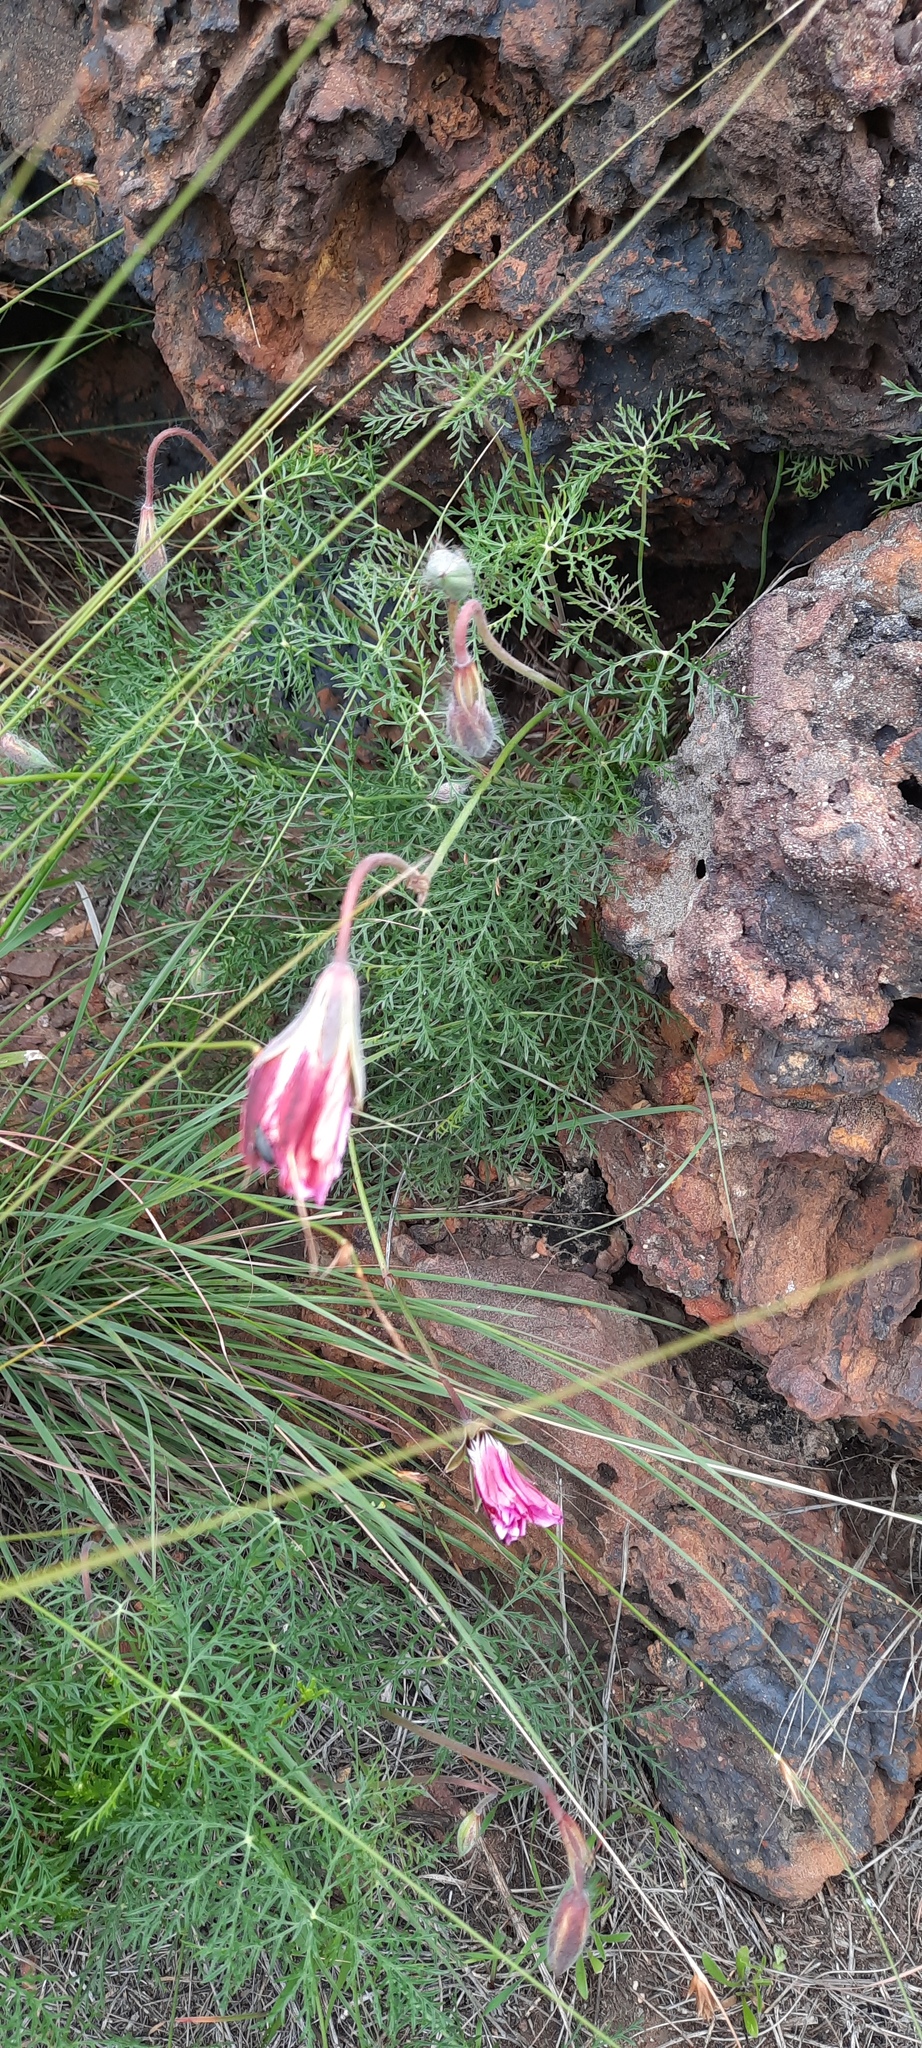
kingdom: Plantae
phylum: Tracheophyta
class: Magnoliopsida
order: Geraniales
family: Geraniaceae
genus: Monsonia
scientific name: Monsonia speciosa
